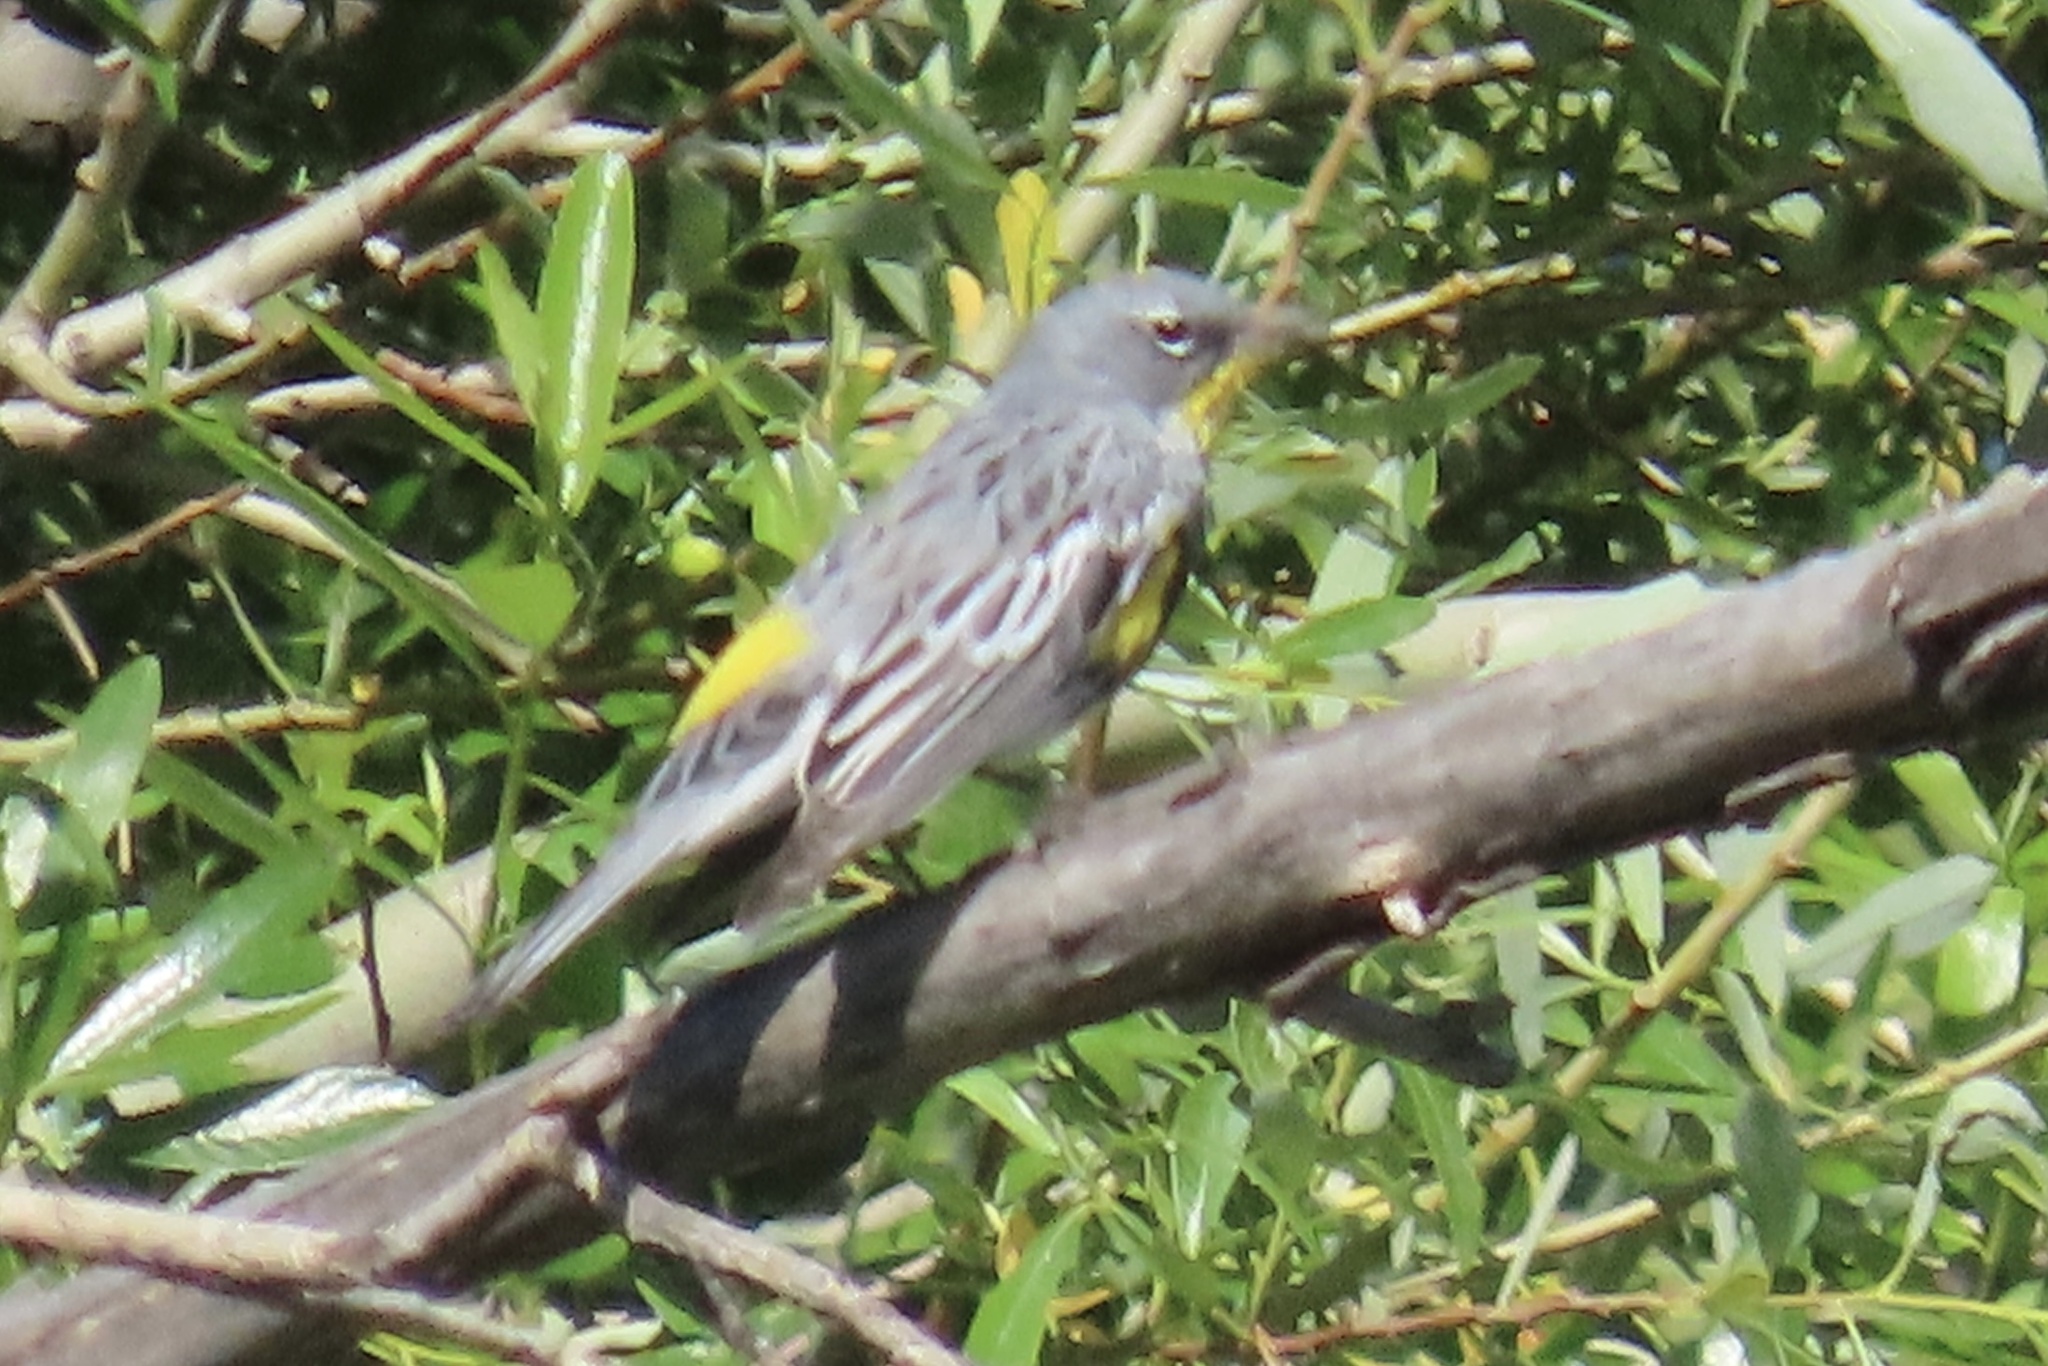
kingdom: Animalia
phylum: Chordata
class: Aves
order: Passeriformes
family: Parulidae
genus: Setophaga
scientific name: Setophaga coronata
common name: Myrtle warbler
